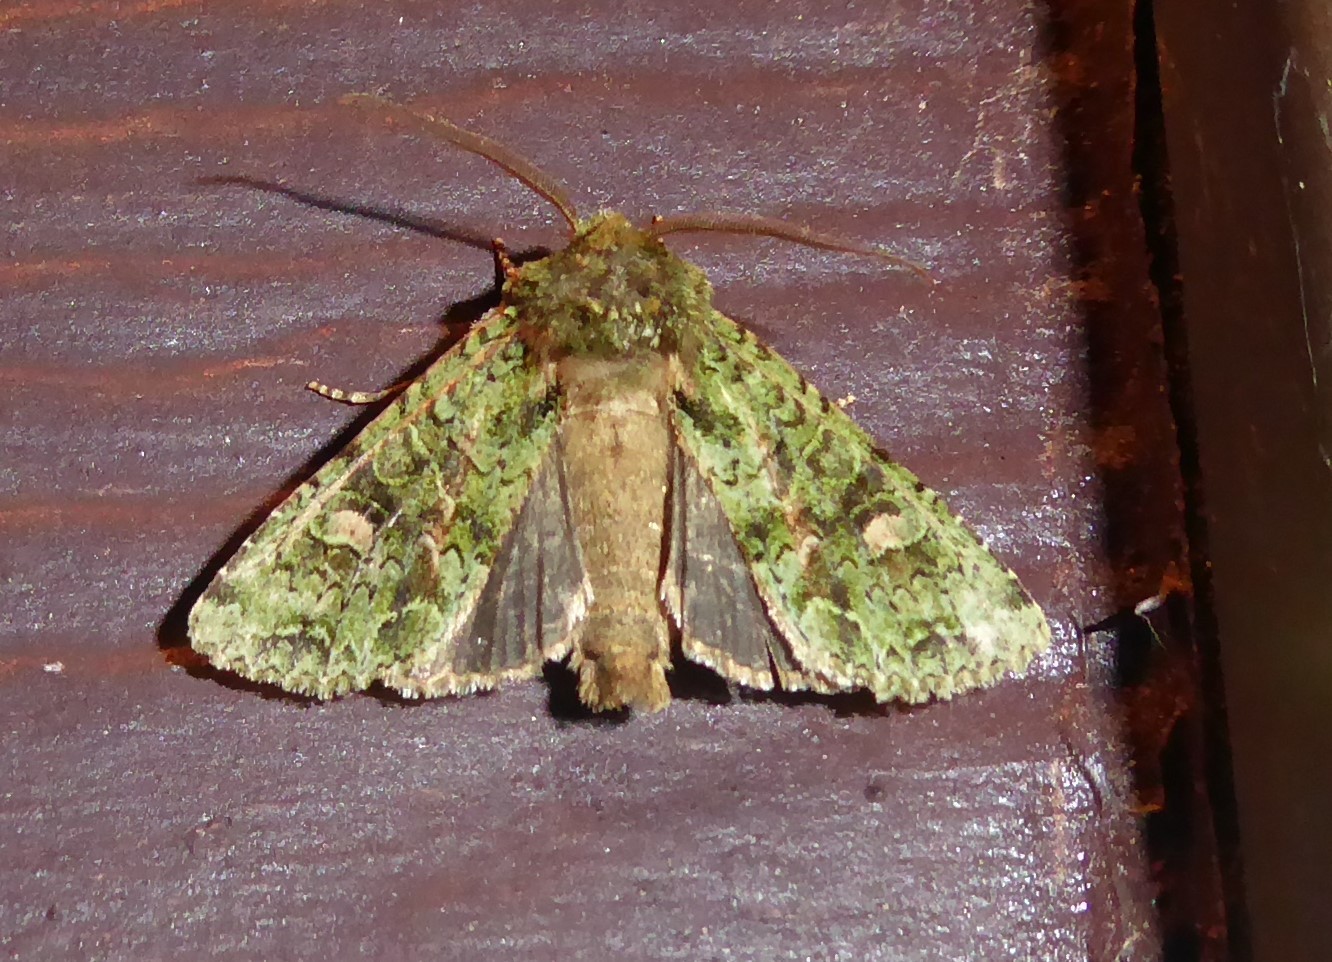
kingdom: Animalia
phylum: Arthropoda
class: Insecta
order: Lepidoptera
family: Noctuidae
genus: Ichneutica
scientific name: Ichneutica
